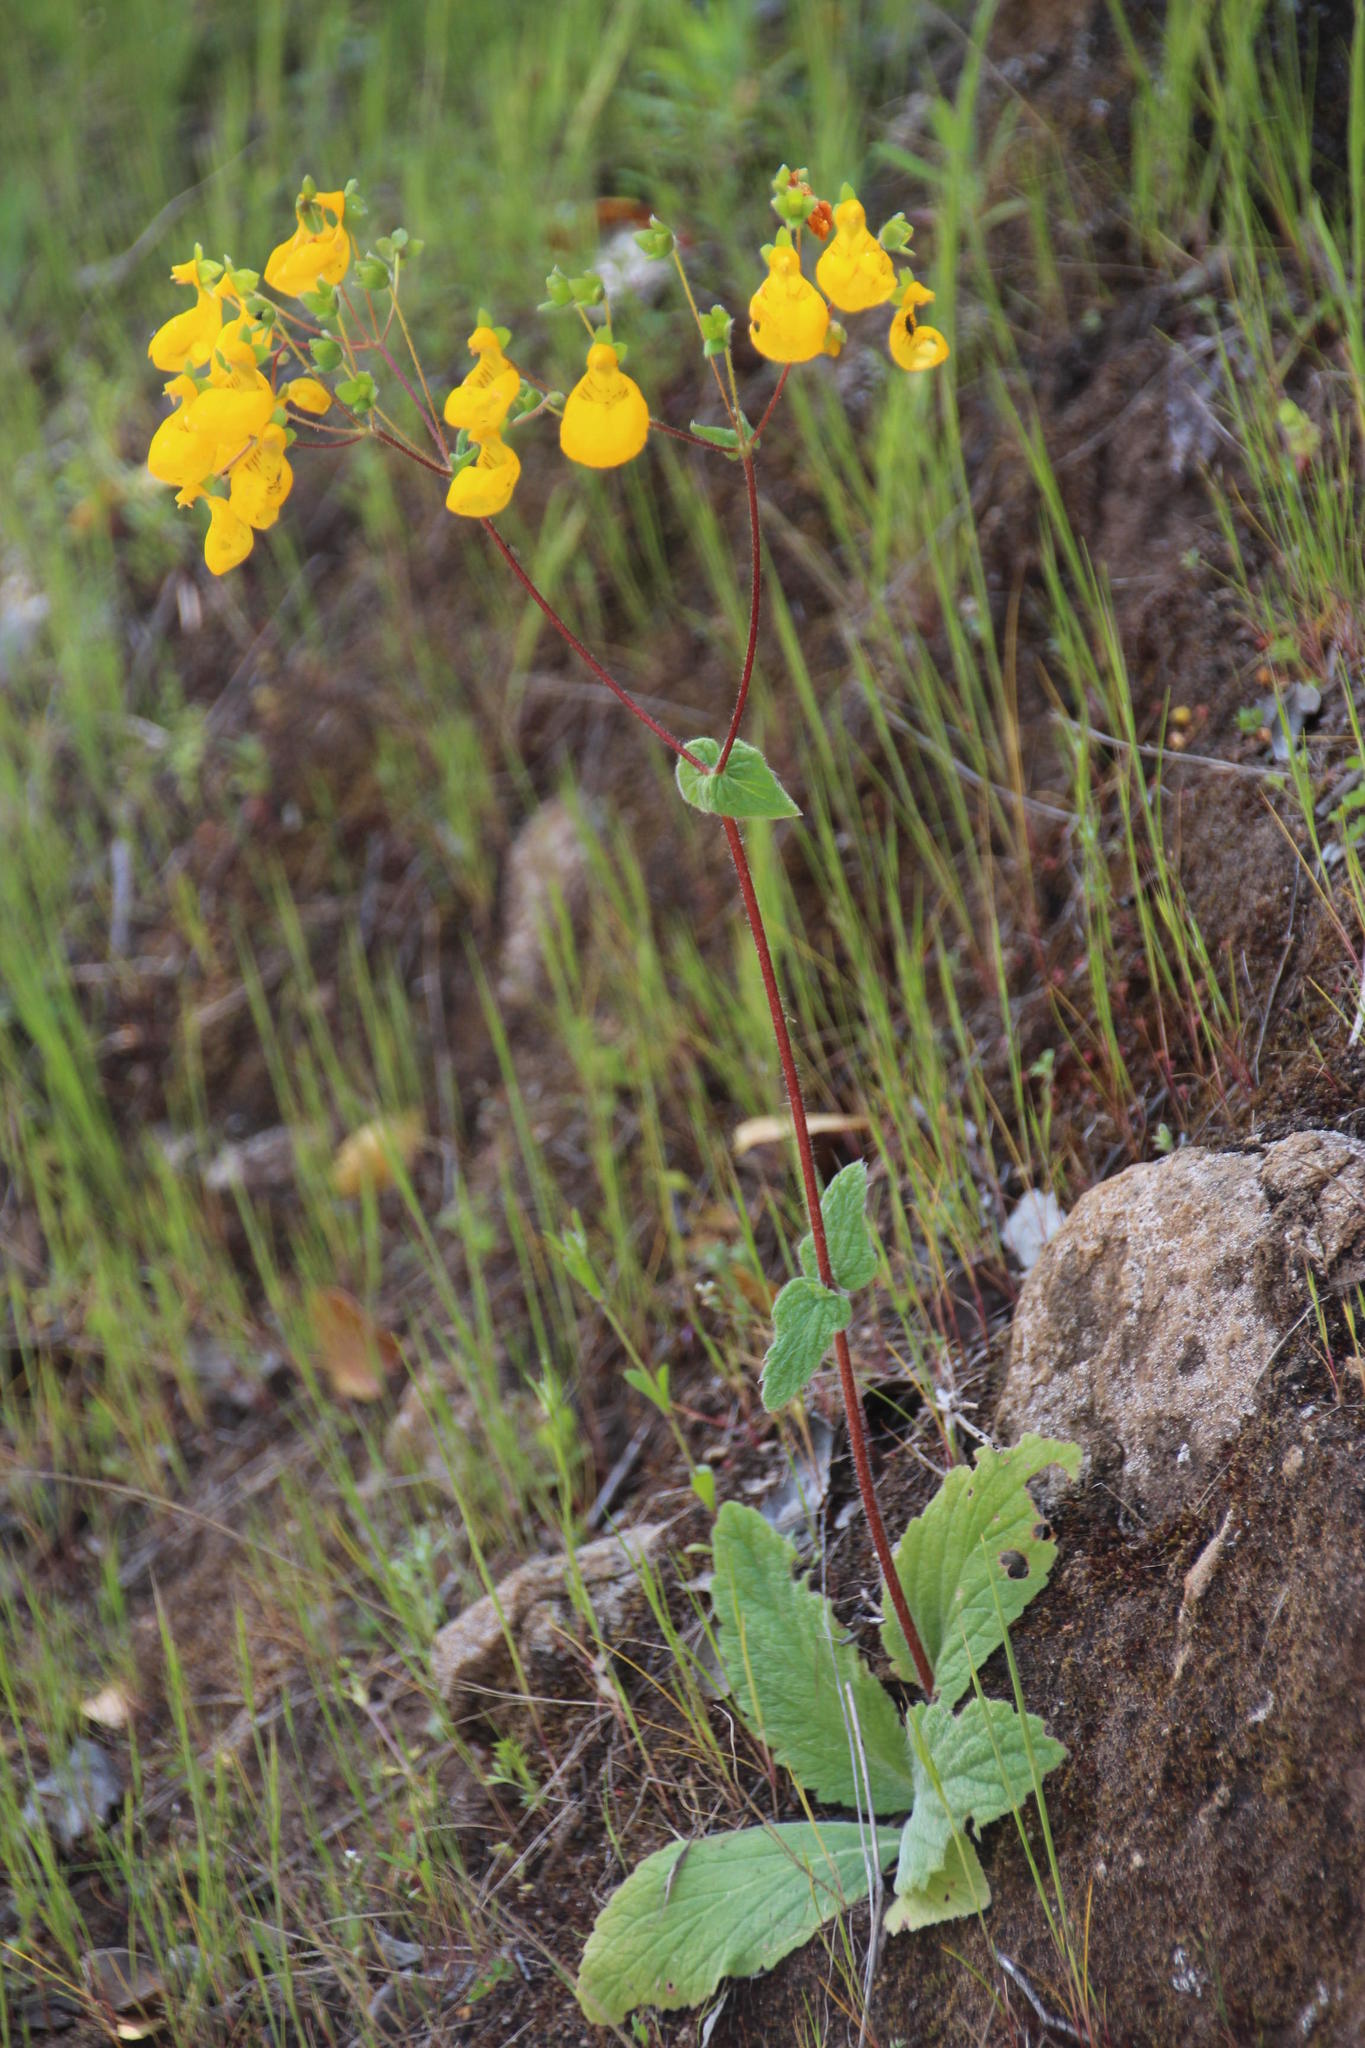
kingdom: Plantae
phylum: Tracheophyta
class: Magnoliopsida
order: Lamiales
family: Calceolariaceae
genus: Calceolaria
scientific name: Calceolaria corymbosa
